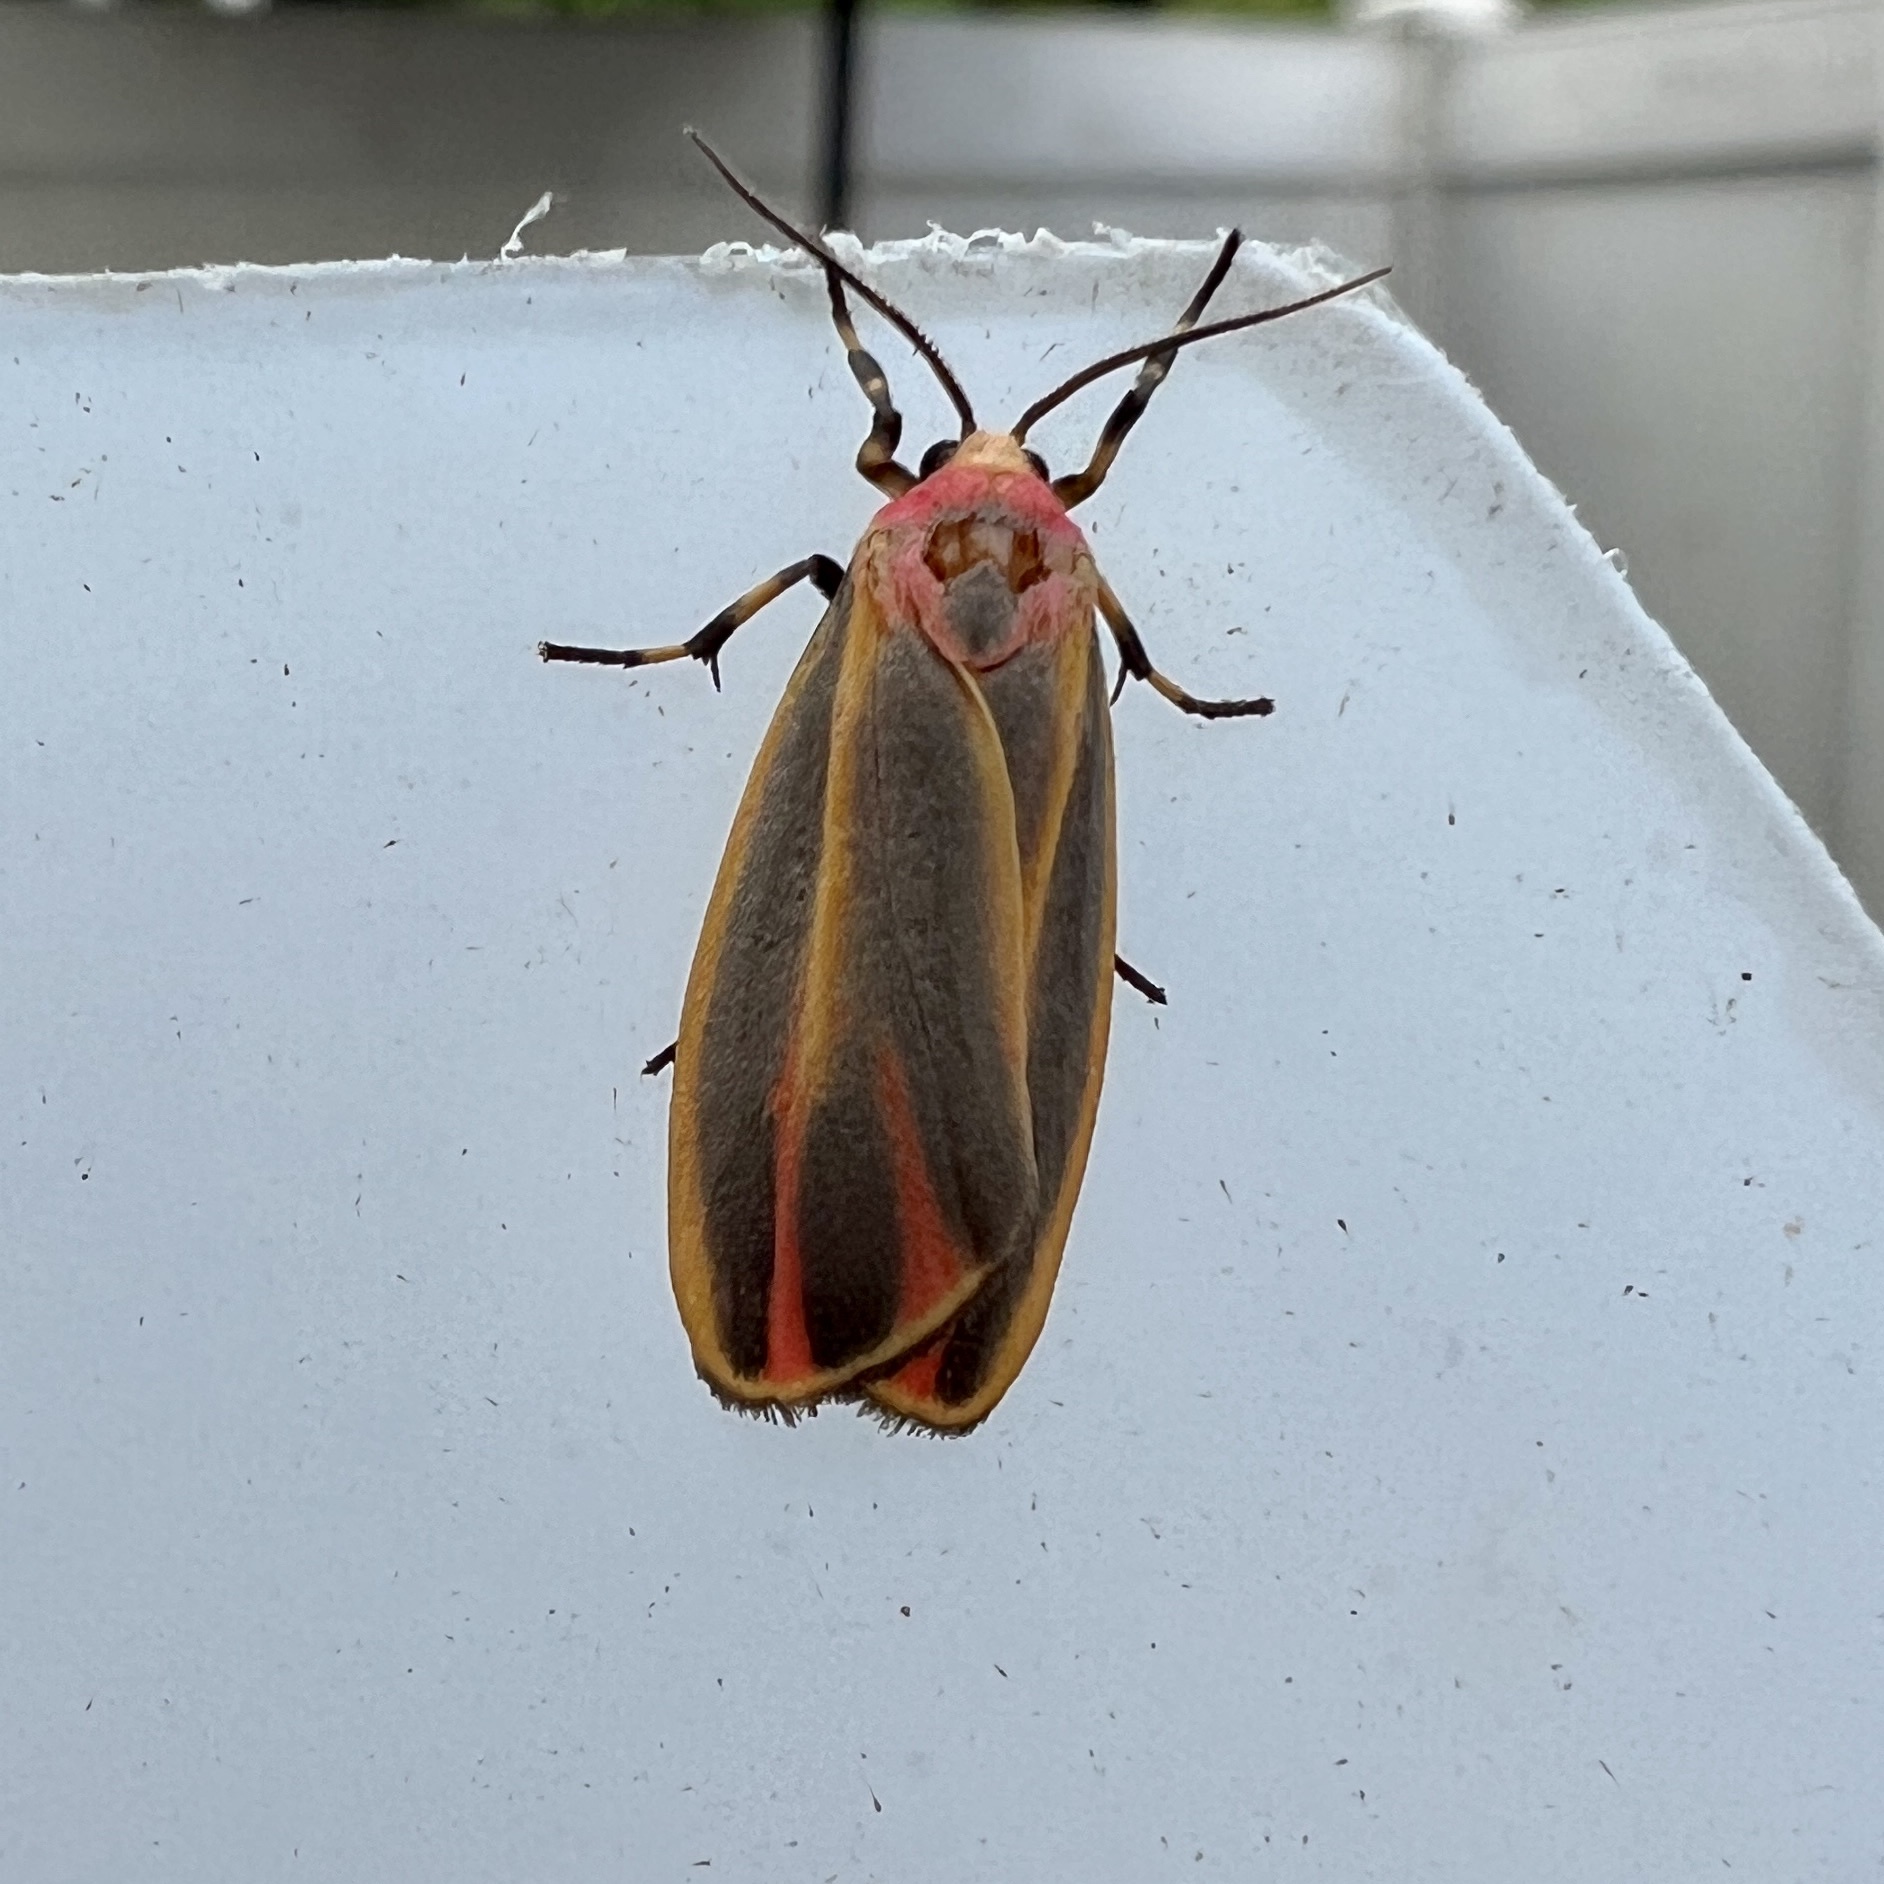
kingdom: Animalia
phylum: Arthropoda
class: Insecta
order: Lepidoptera
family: Erebidae
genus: Hypoprepia
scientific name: Hypoprepia fucosa
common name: Painted lichen moth
